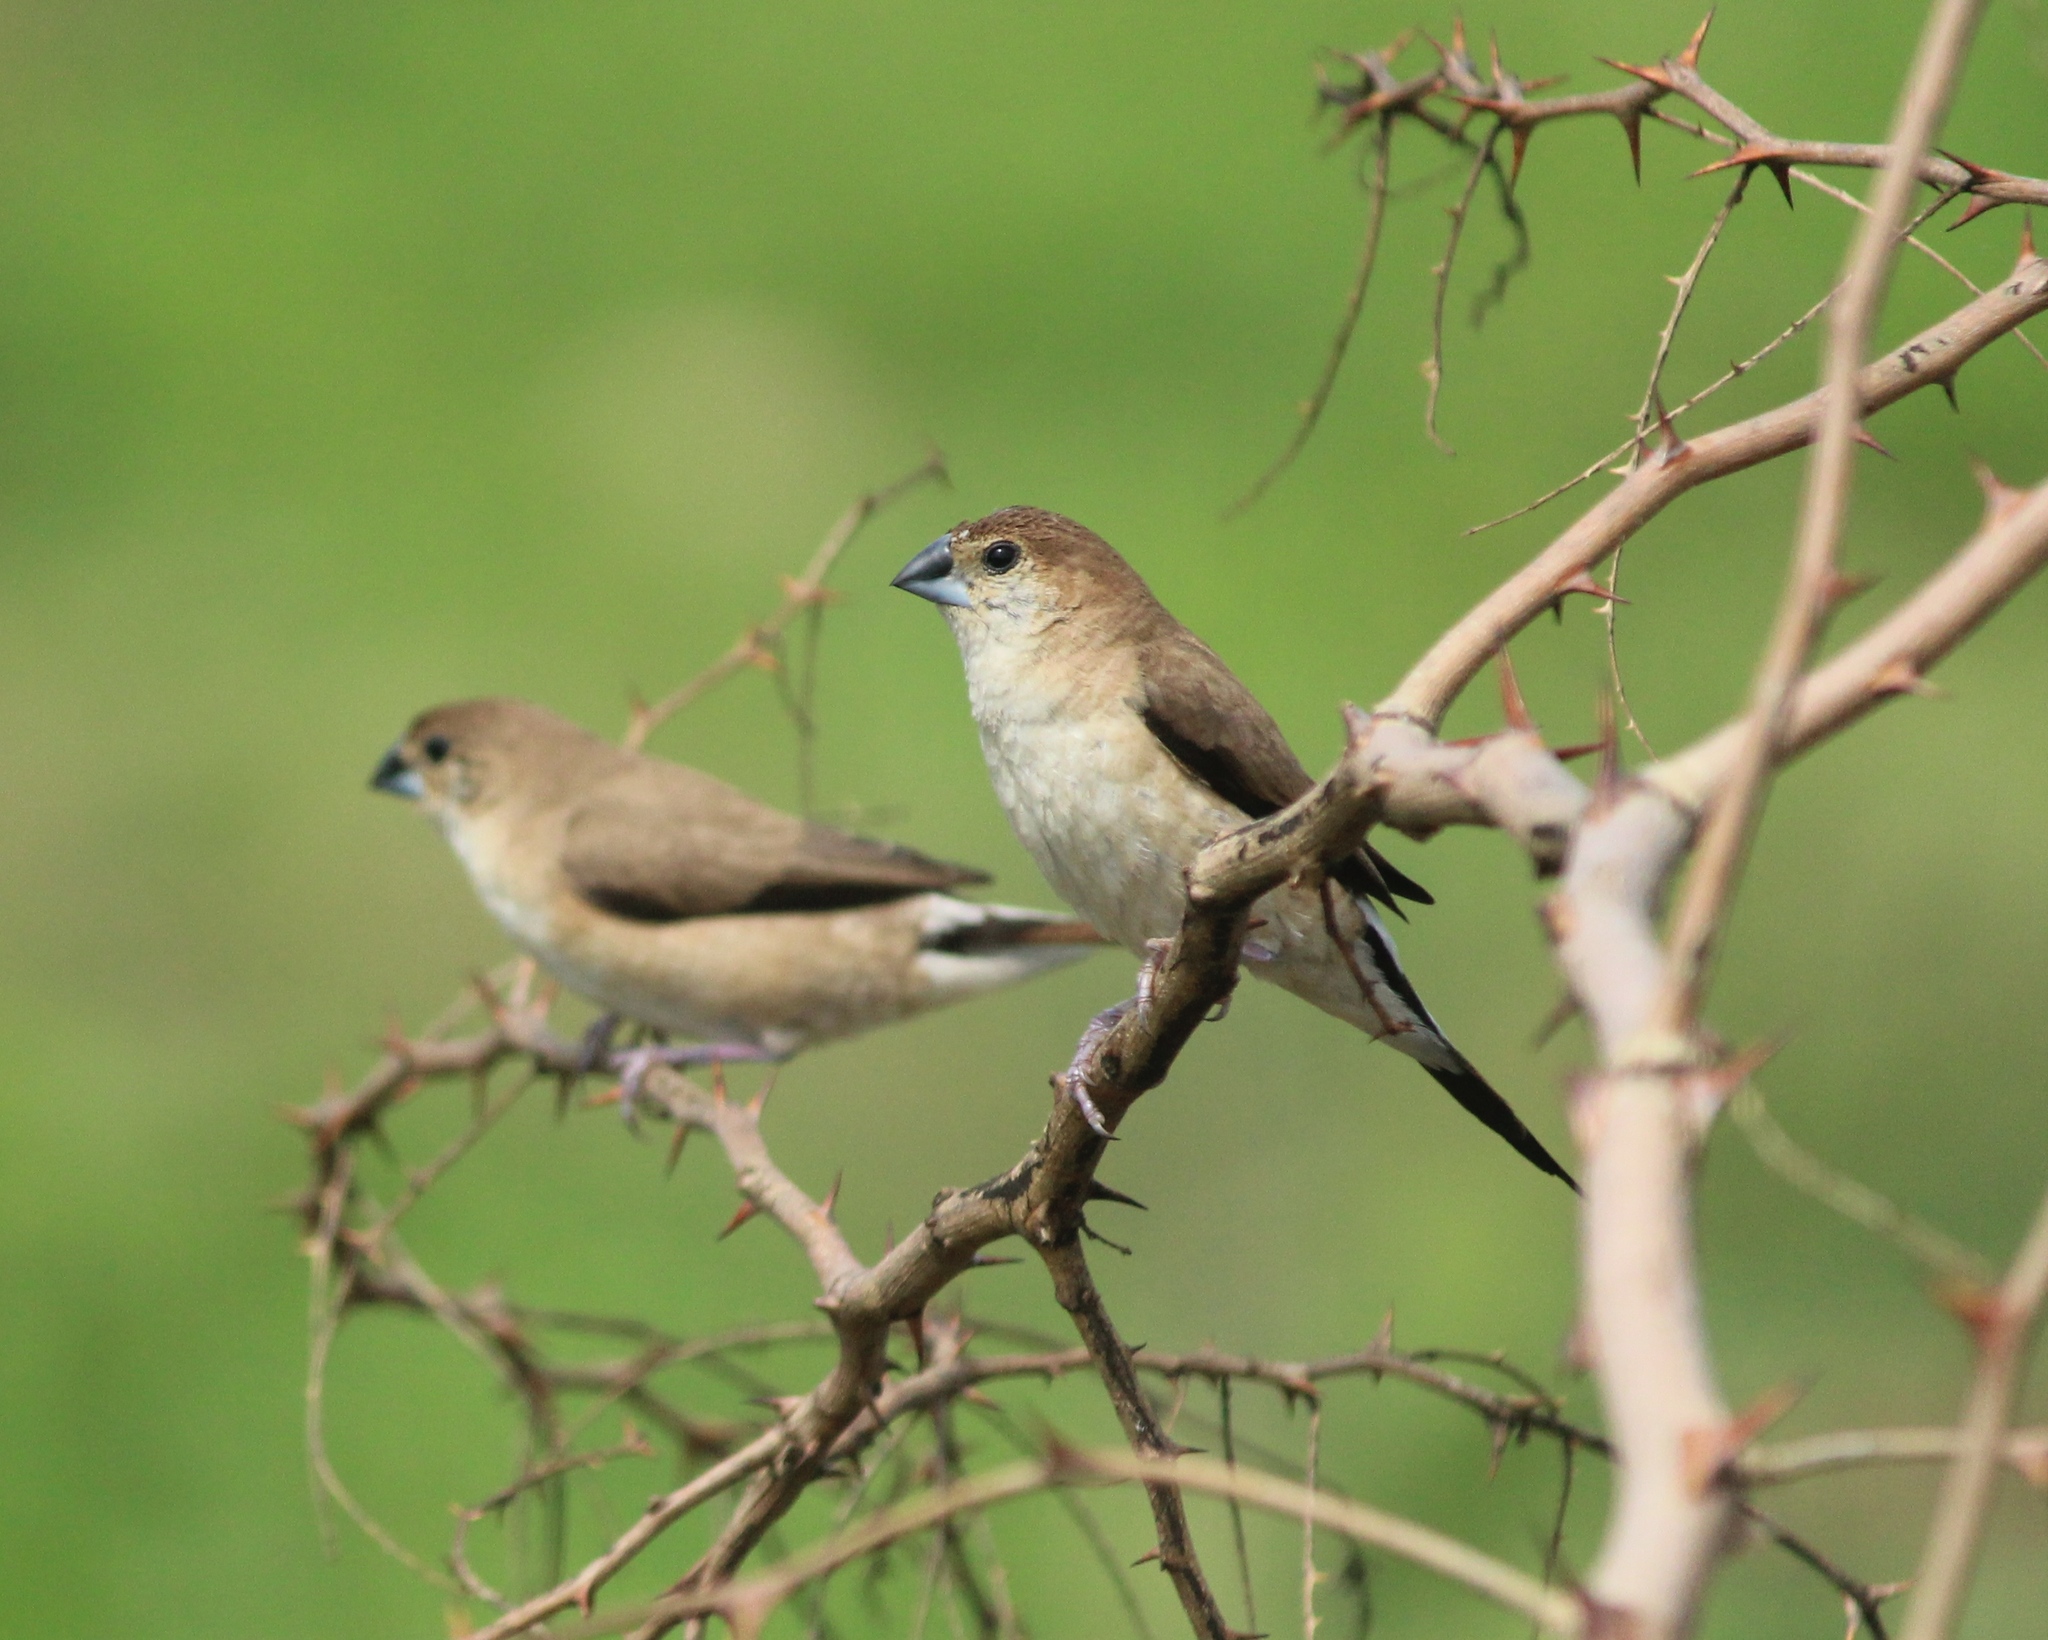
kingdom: Animalia
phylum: Chordata
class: Aves
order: Passeriformes
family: Estrildidae
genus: Euodice
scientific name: Euodice malabarica
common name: Indian silverbill
